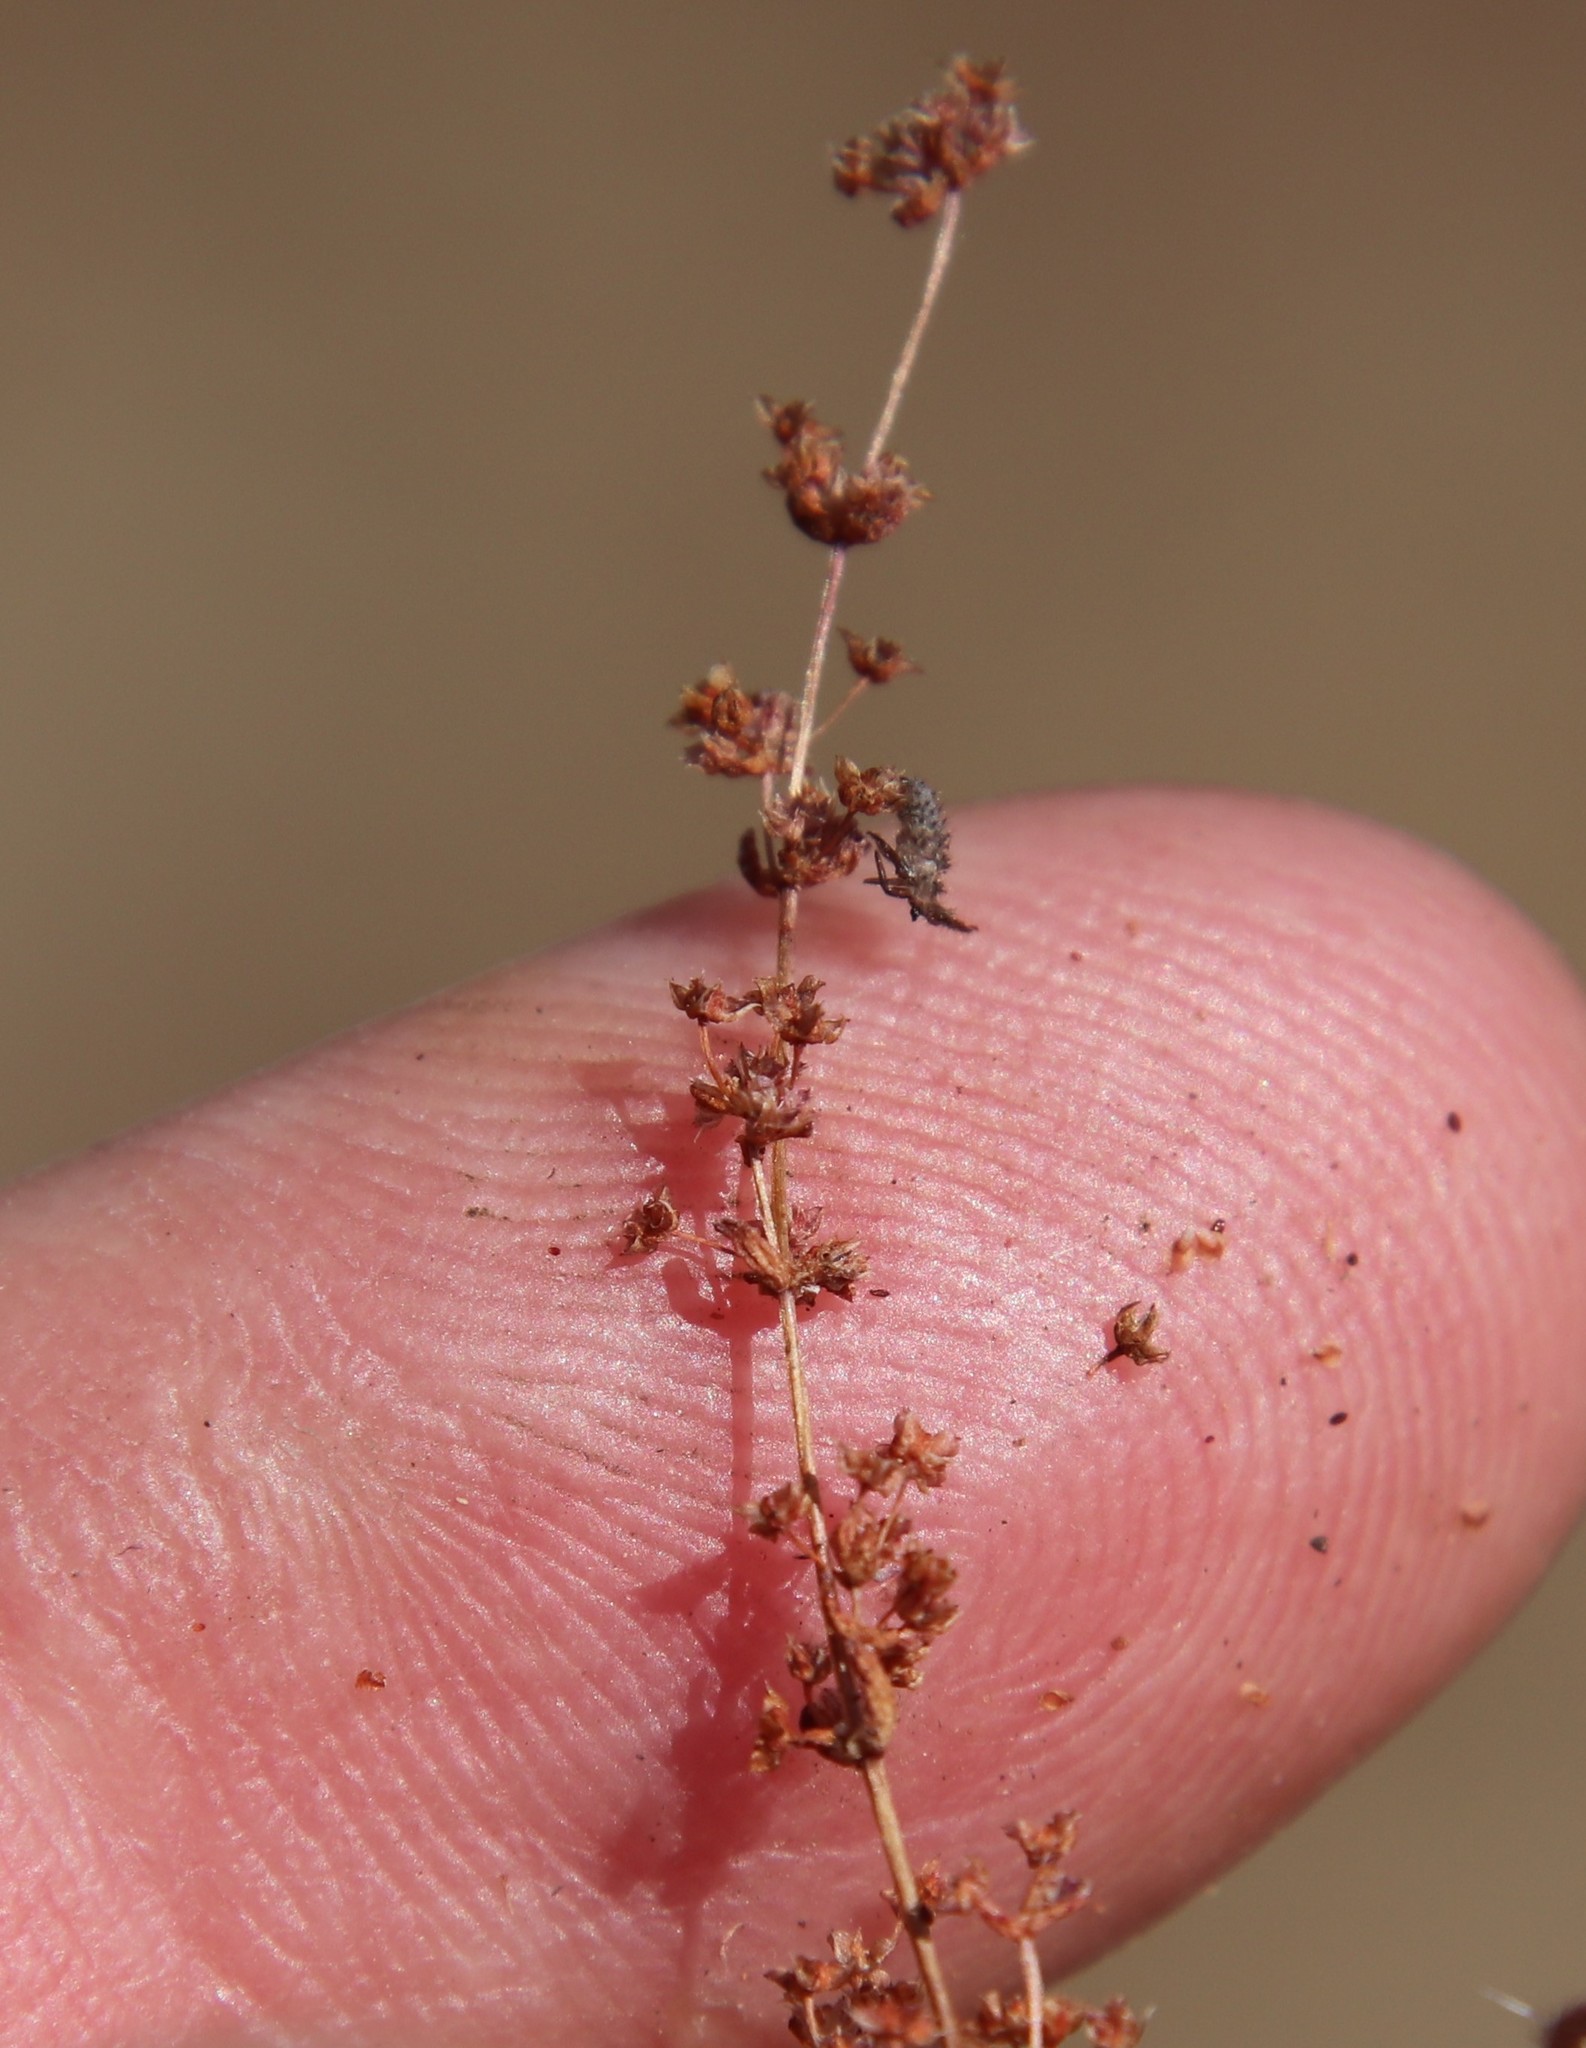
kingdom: Plantae
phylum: Tracheophyta
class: Magnoliopsida
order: Saxifragales
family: Crassulaceae
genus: Crassula
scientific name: Crassula connata
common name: Erect pygmyweed
